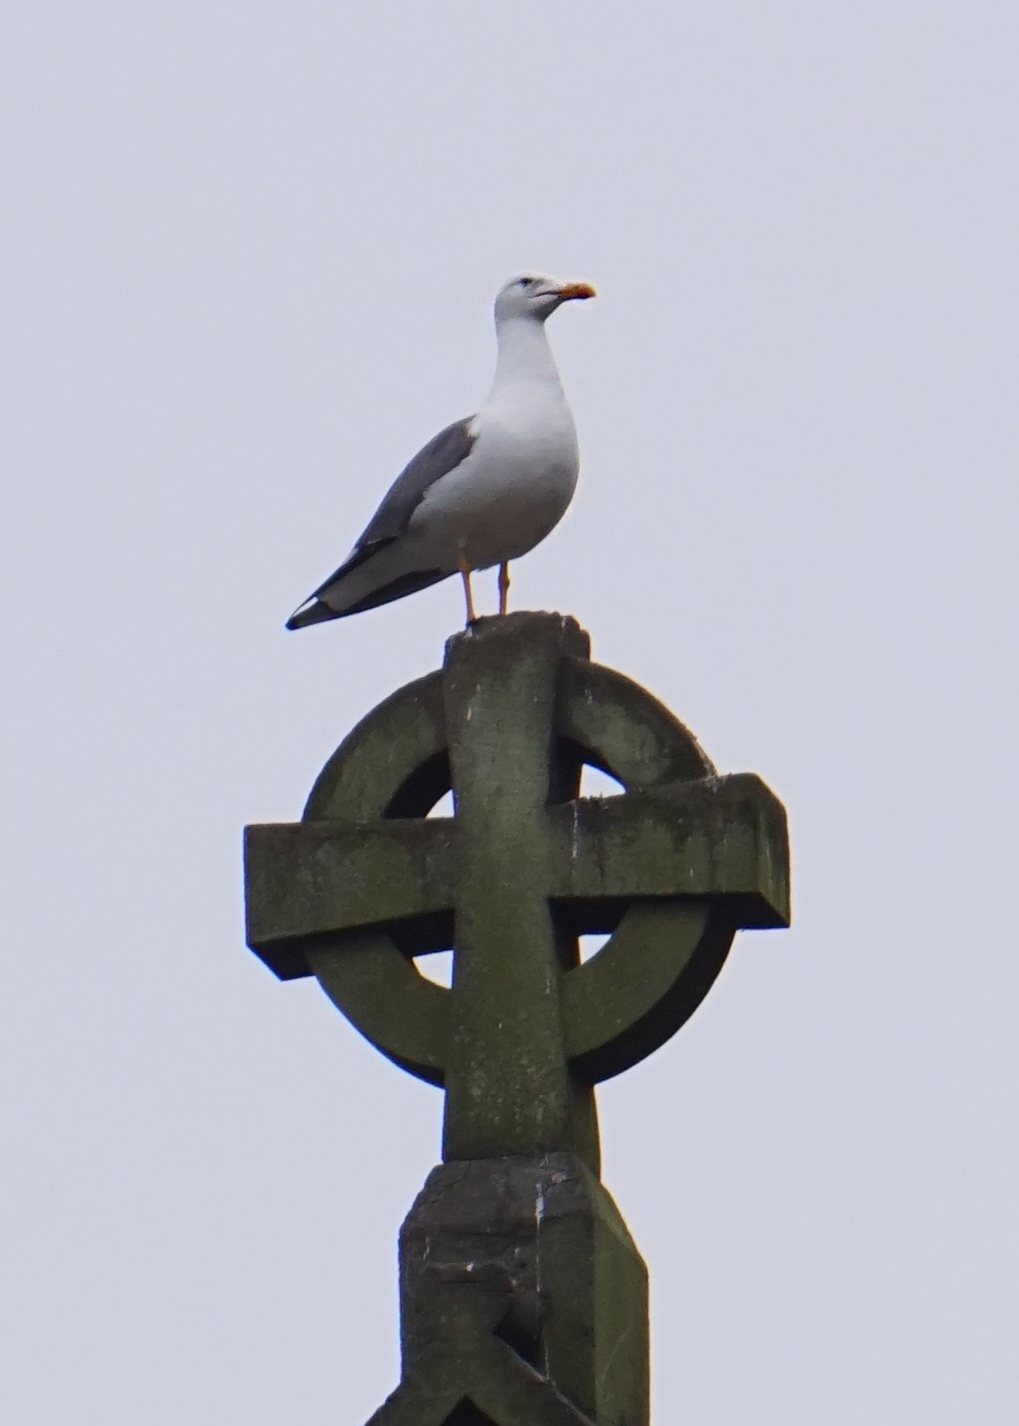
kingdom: Animalia
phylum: Chordata
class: Aves
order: Charadriiformes
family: Laridae
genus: Larus
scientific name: Larus fuscus
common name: Lesser black-backed gull
